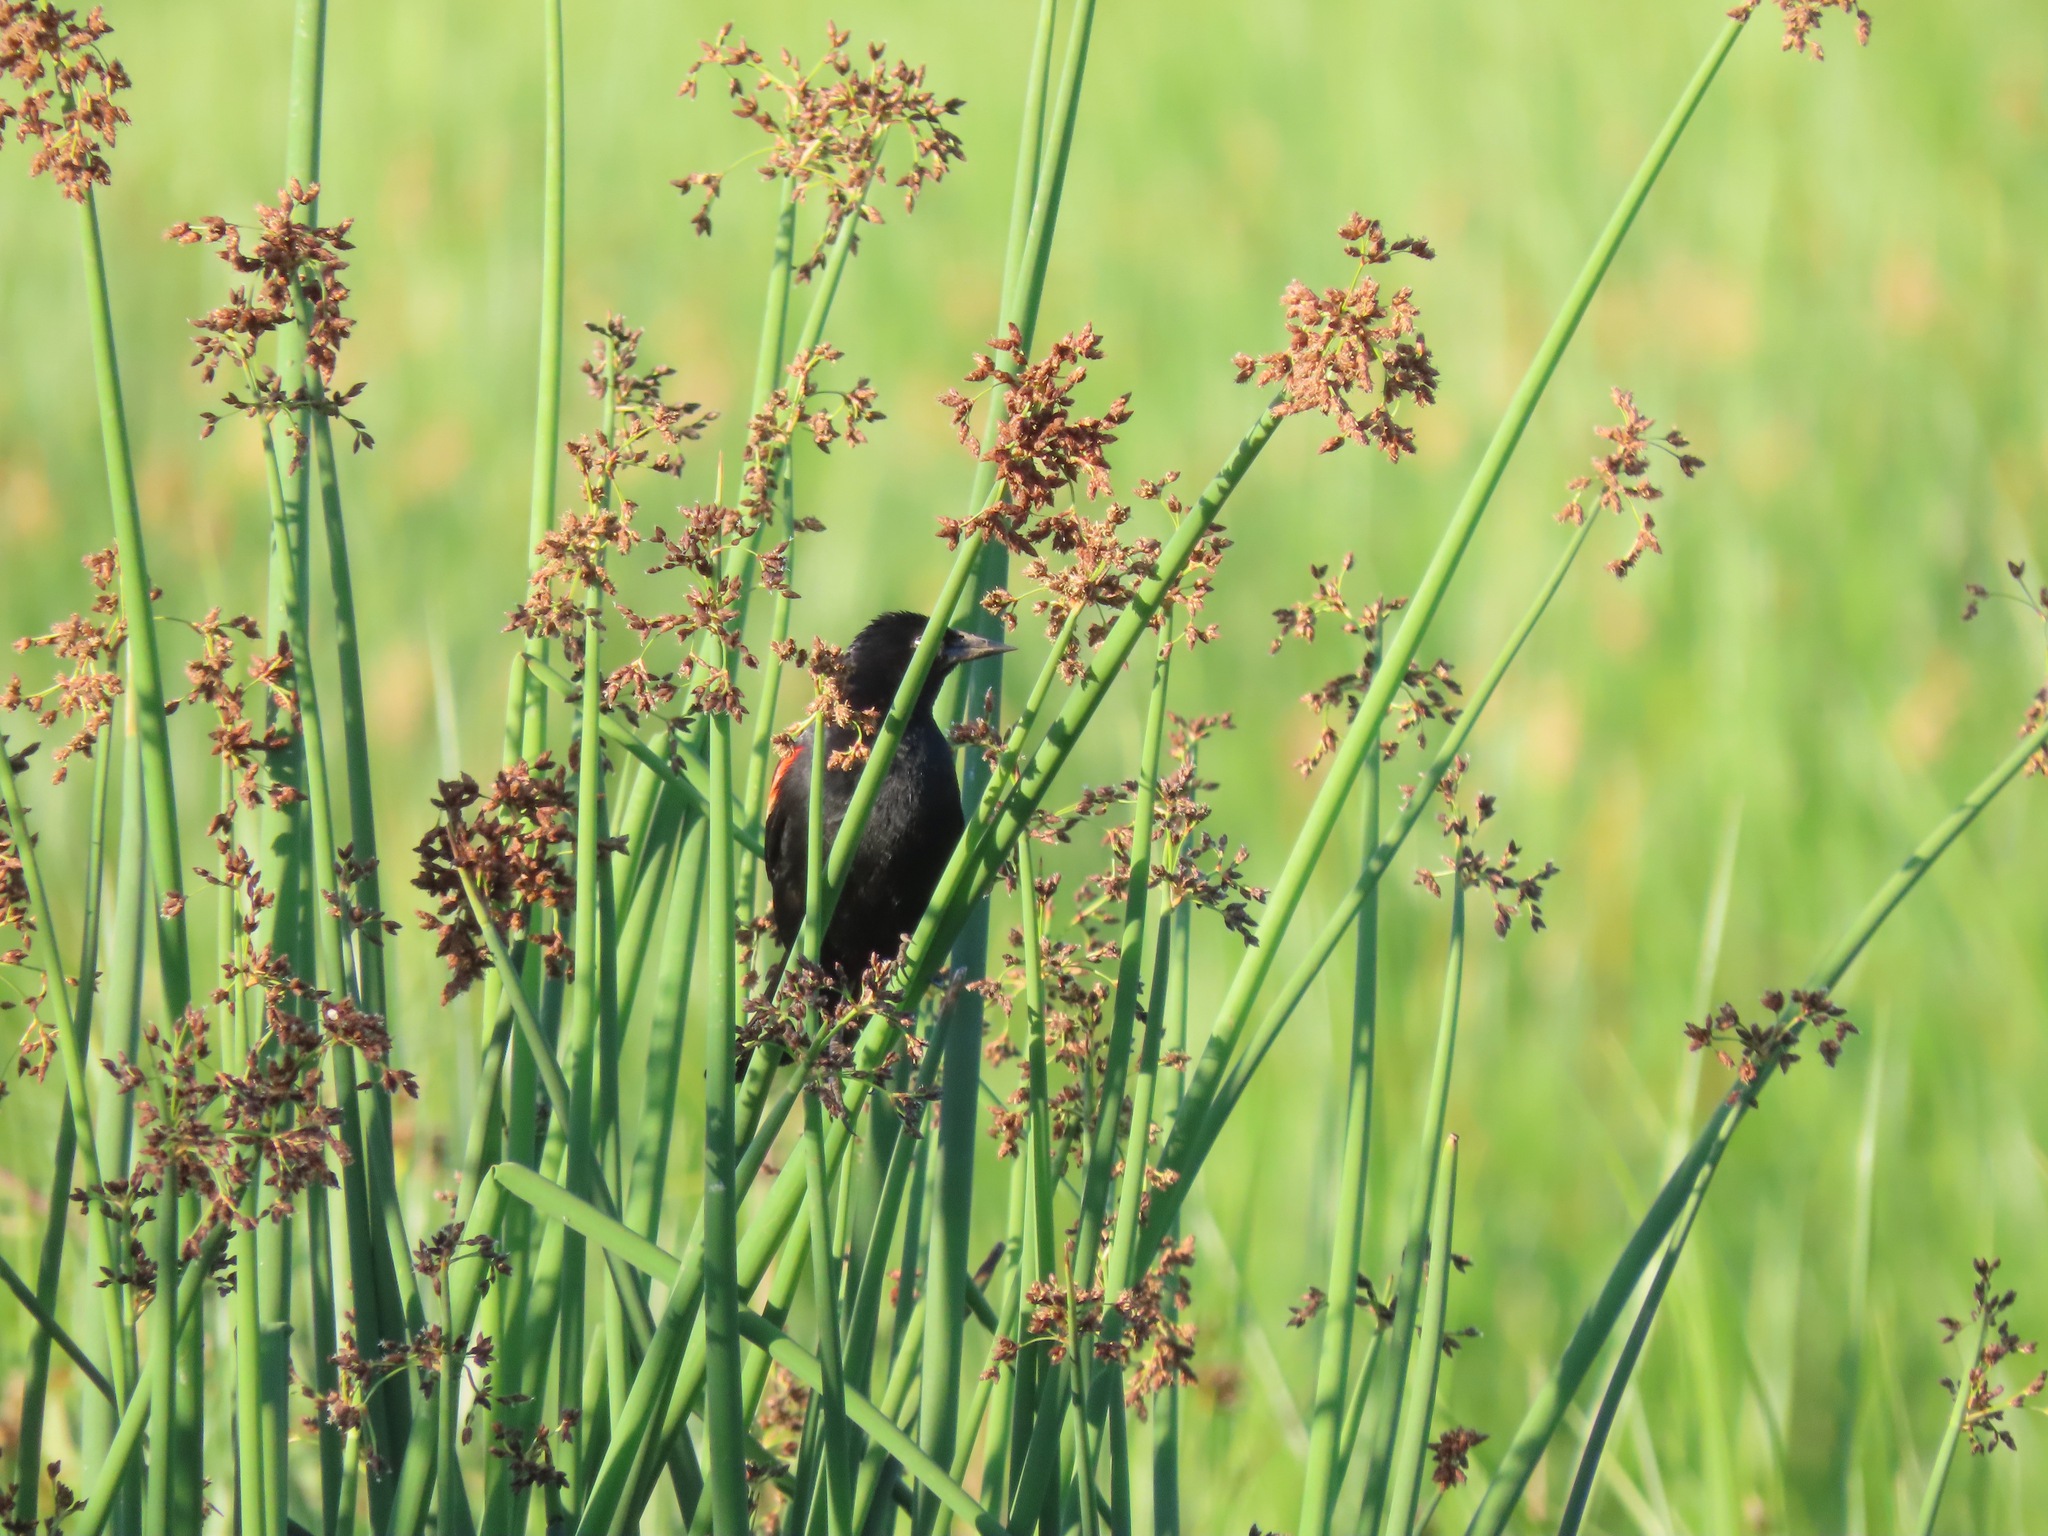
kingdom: Animalia
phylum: Chordata
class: Aves
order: Passeriformes
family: Icteridae
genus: Agelaius
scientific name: Agelaius phoeniceus
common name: Red-winged blackbird
